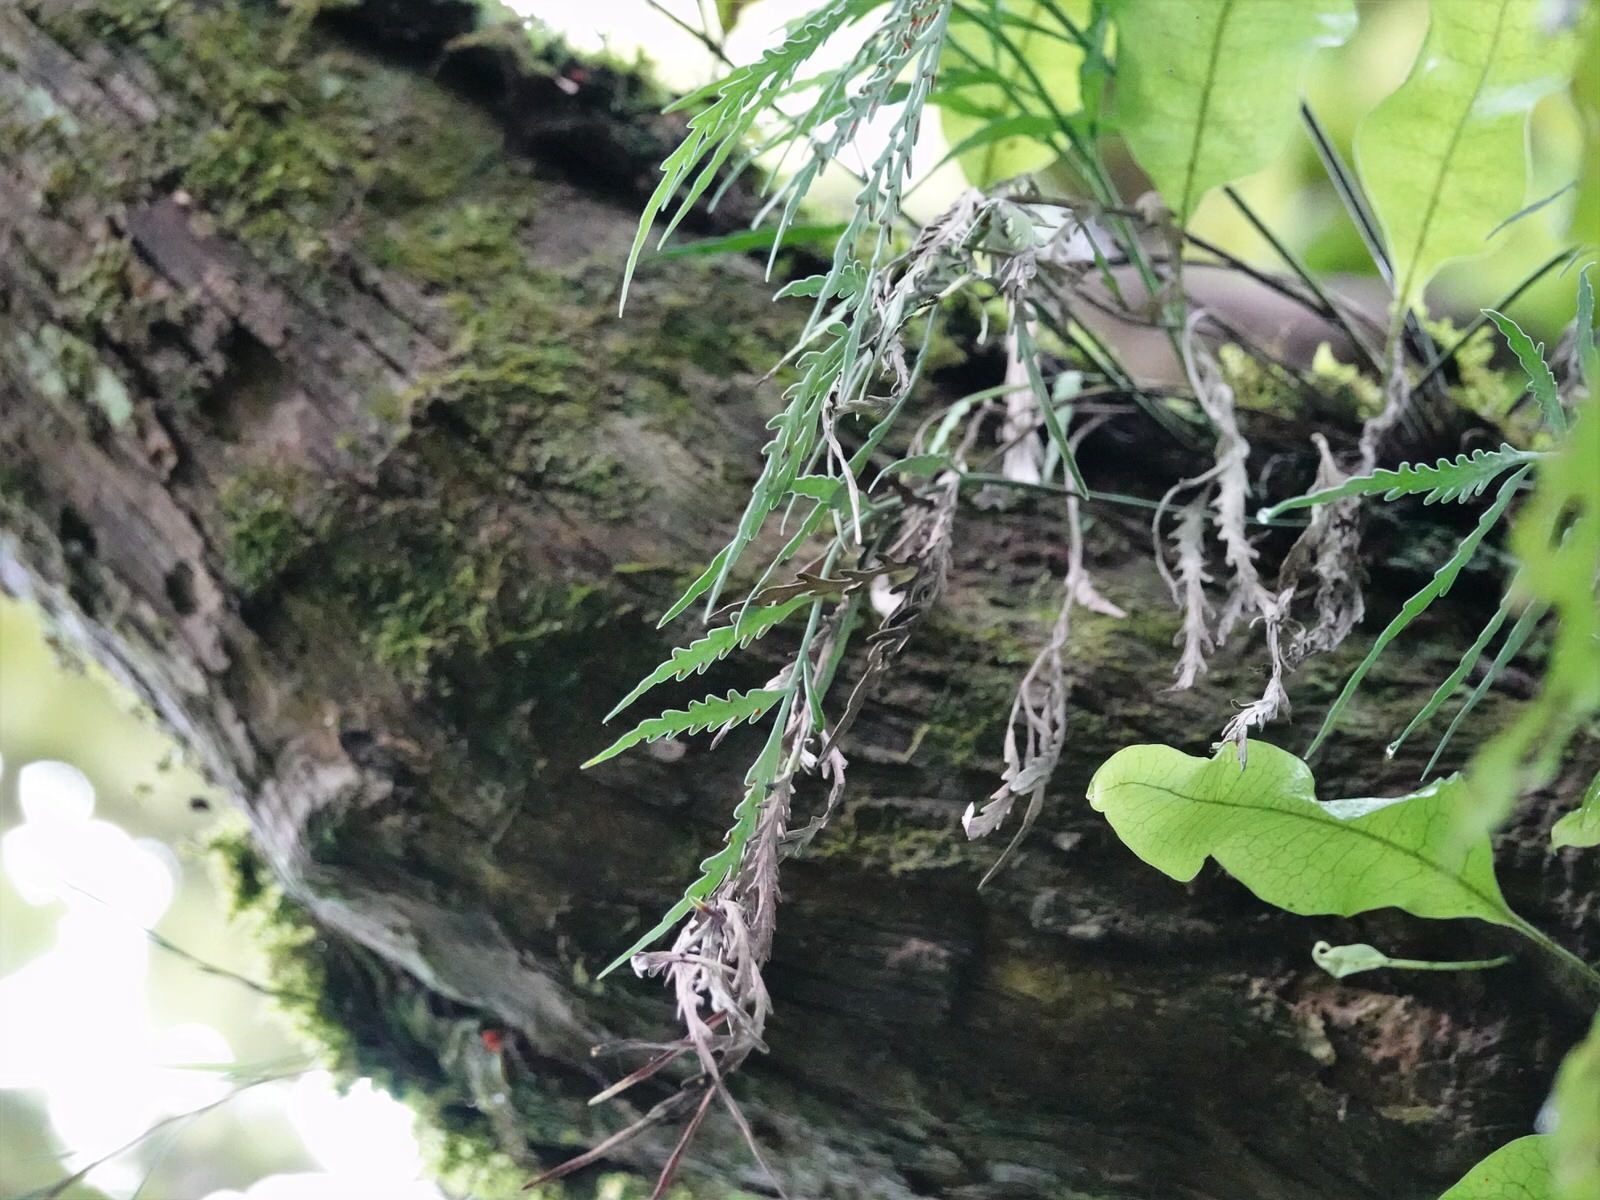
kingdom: Plantae
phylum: Tracheophyta
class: Polypodiopsida
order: Polypodiales
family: Aspleniaceae
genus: Asplenium
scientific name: Asplenium flaccidum
